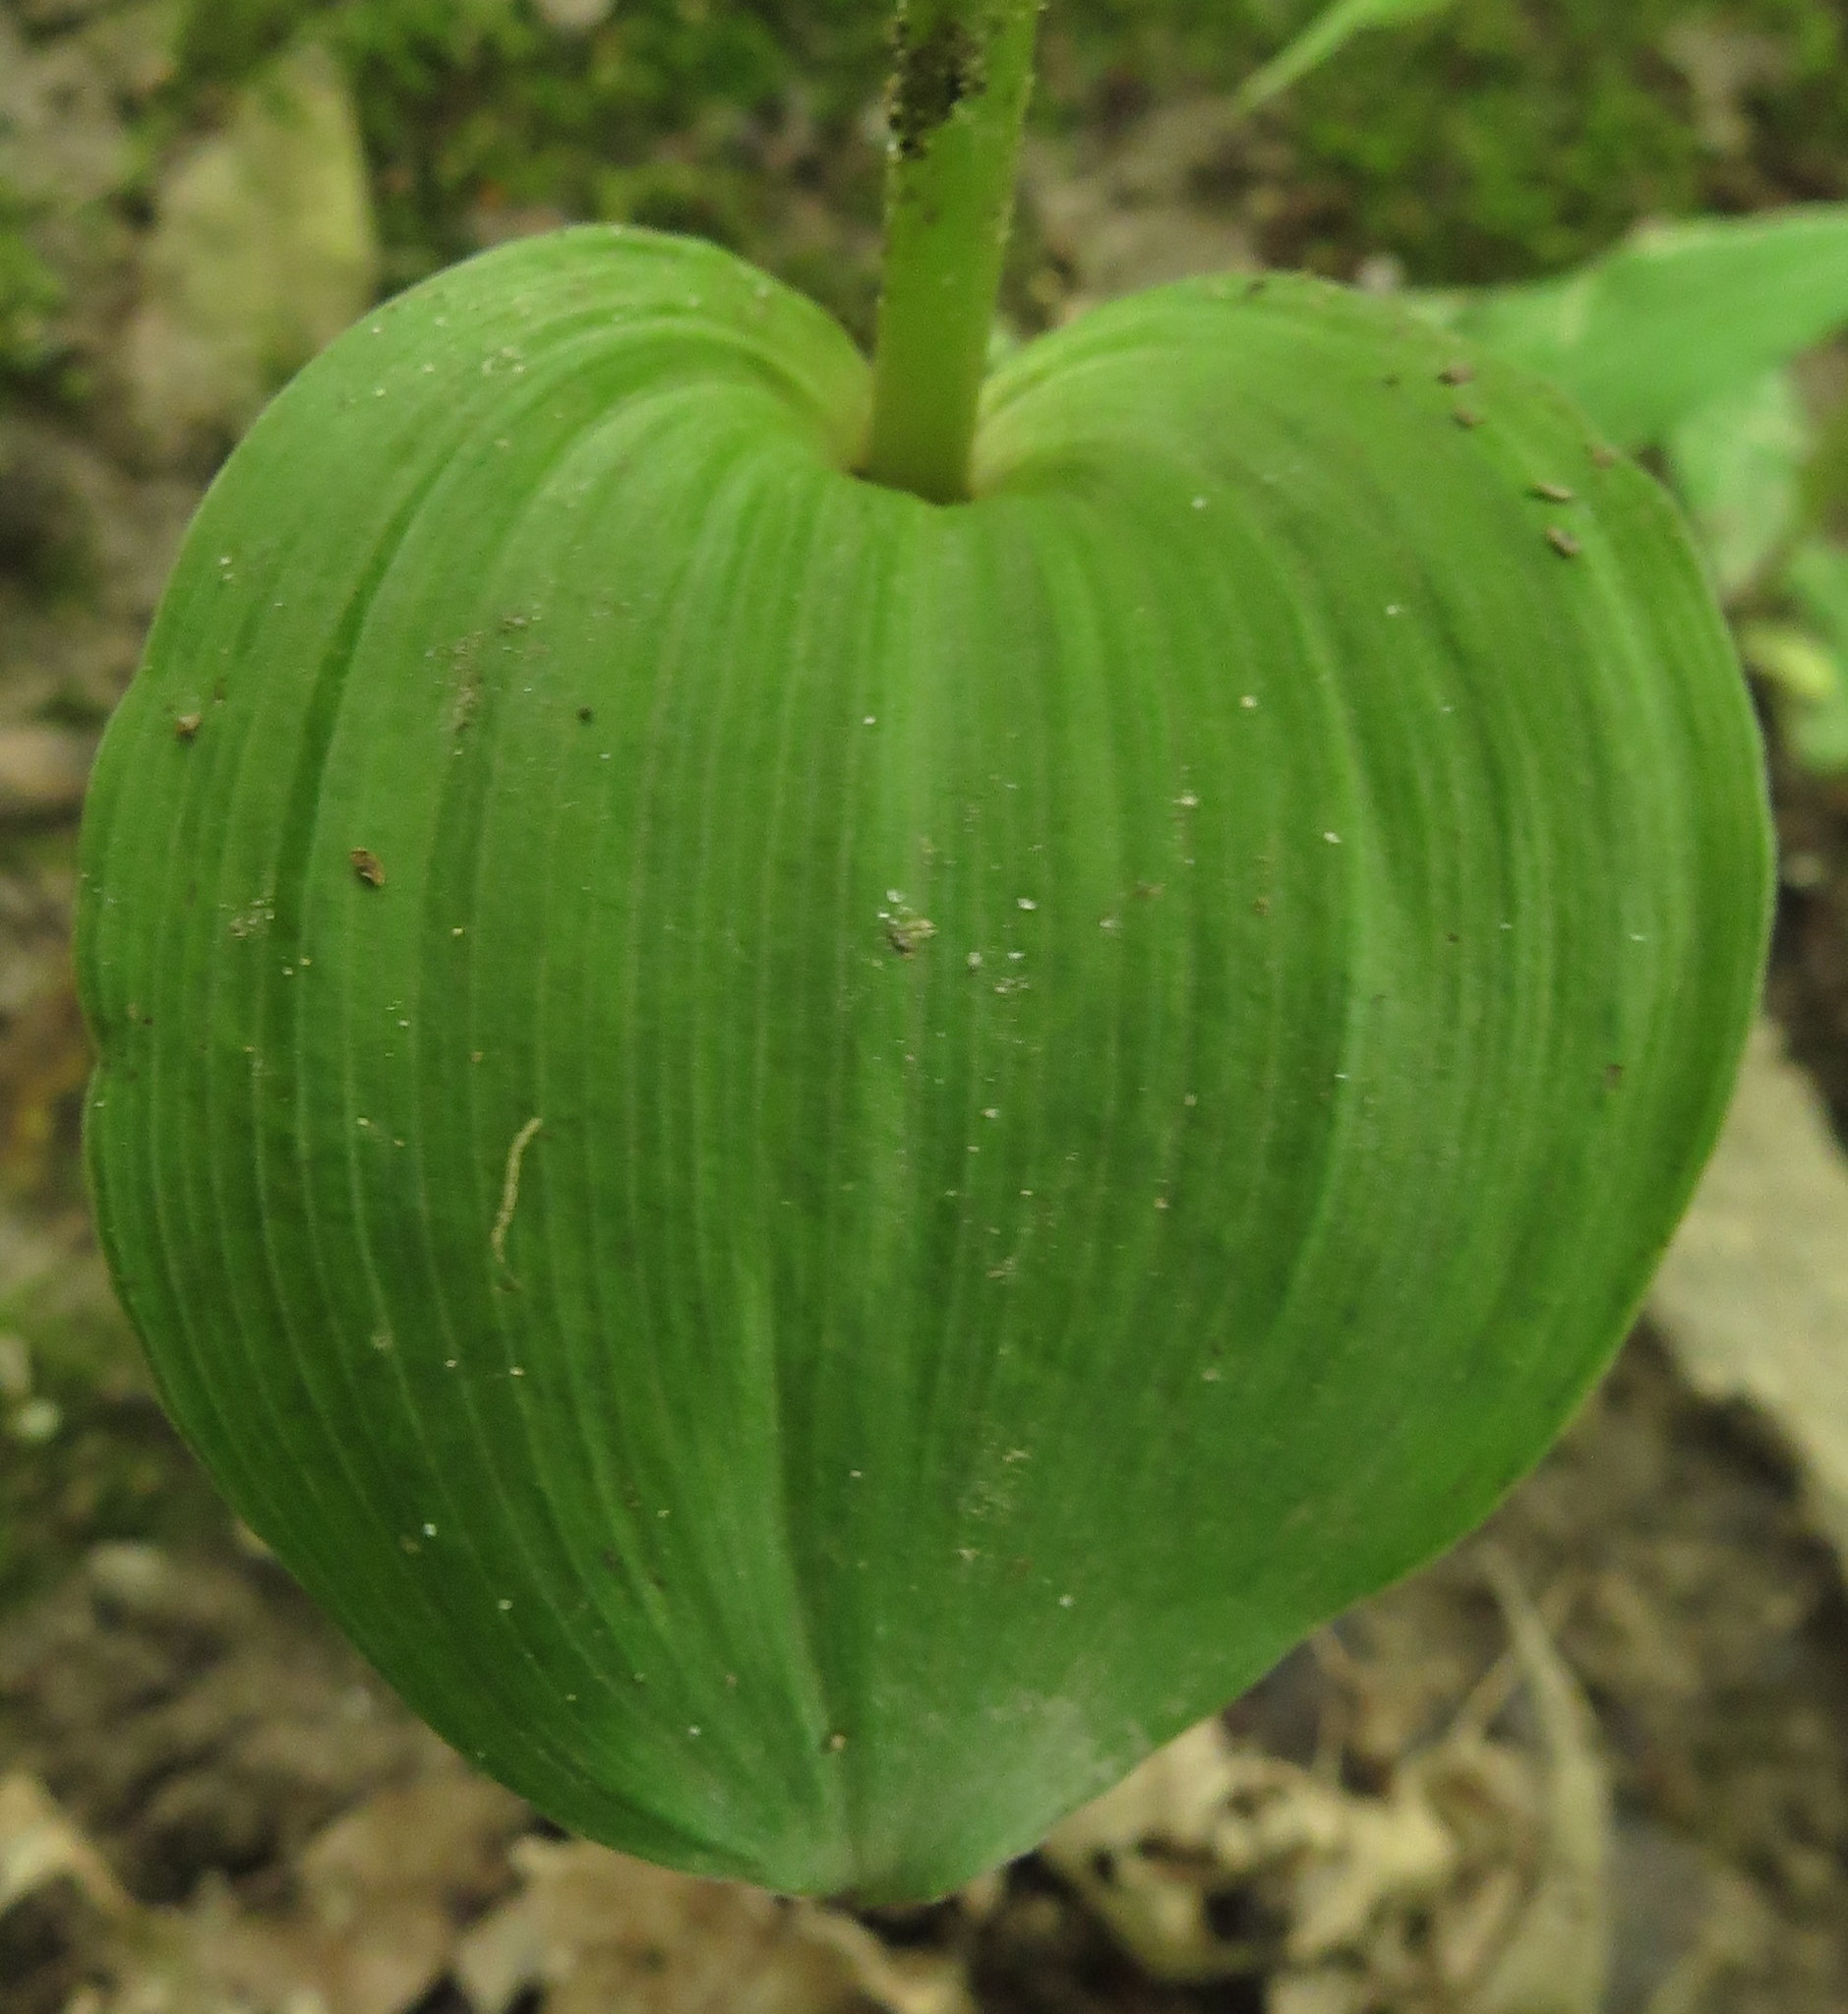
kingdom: Plantae
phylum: Tracheophyta
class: Liliopsida
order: Asparagales
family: Orchidaceae
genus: Epipactis
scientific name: Epipactis helleborine
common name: Broad-leaved helleborine
